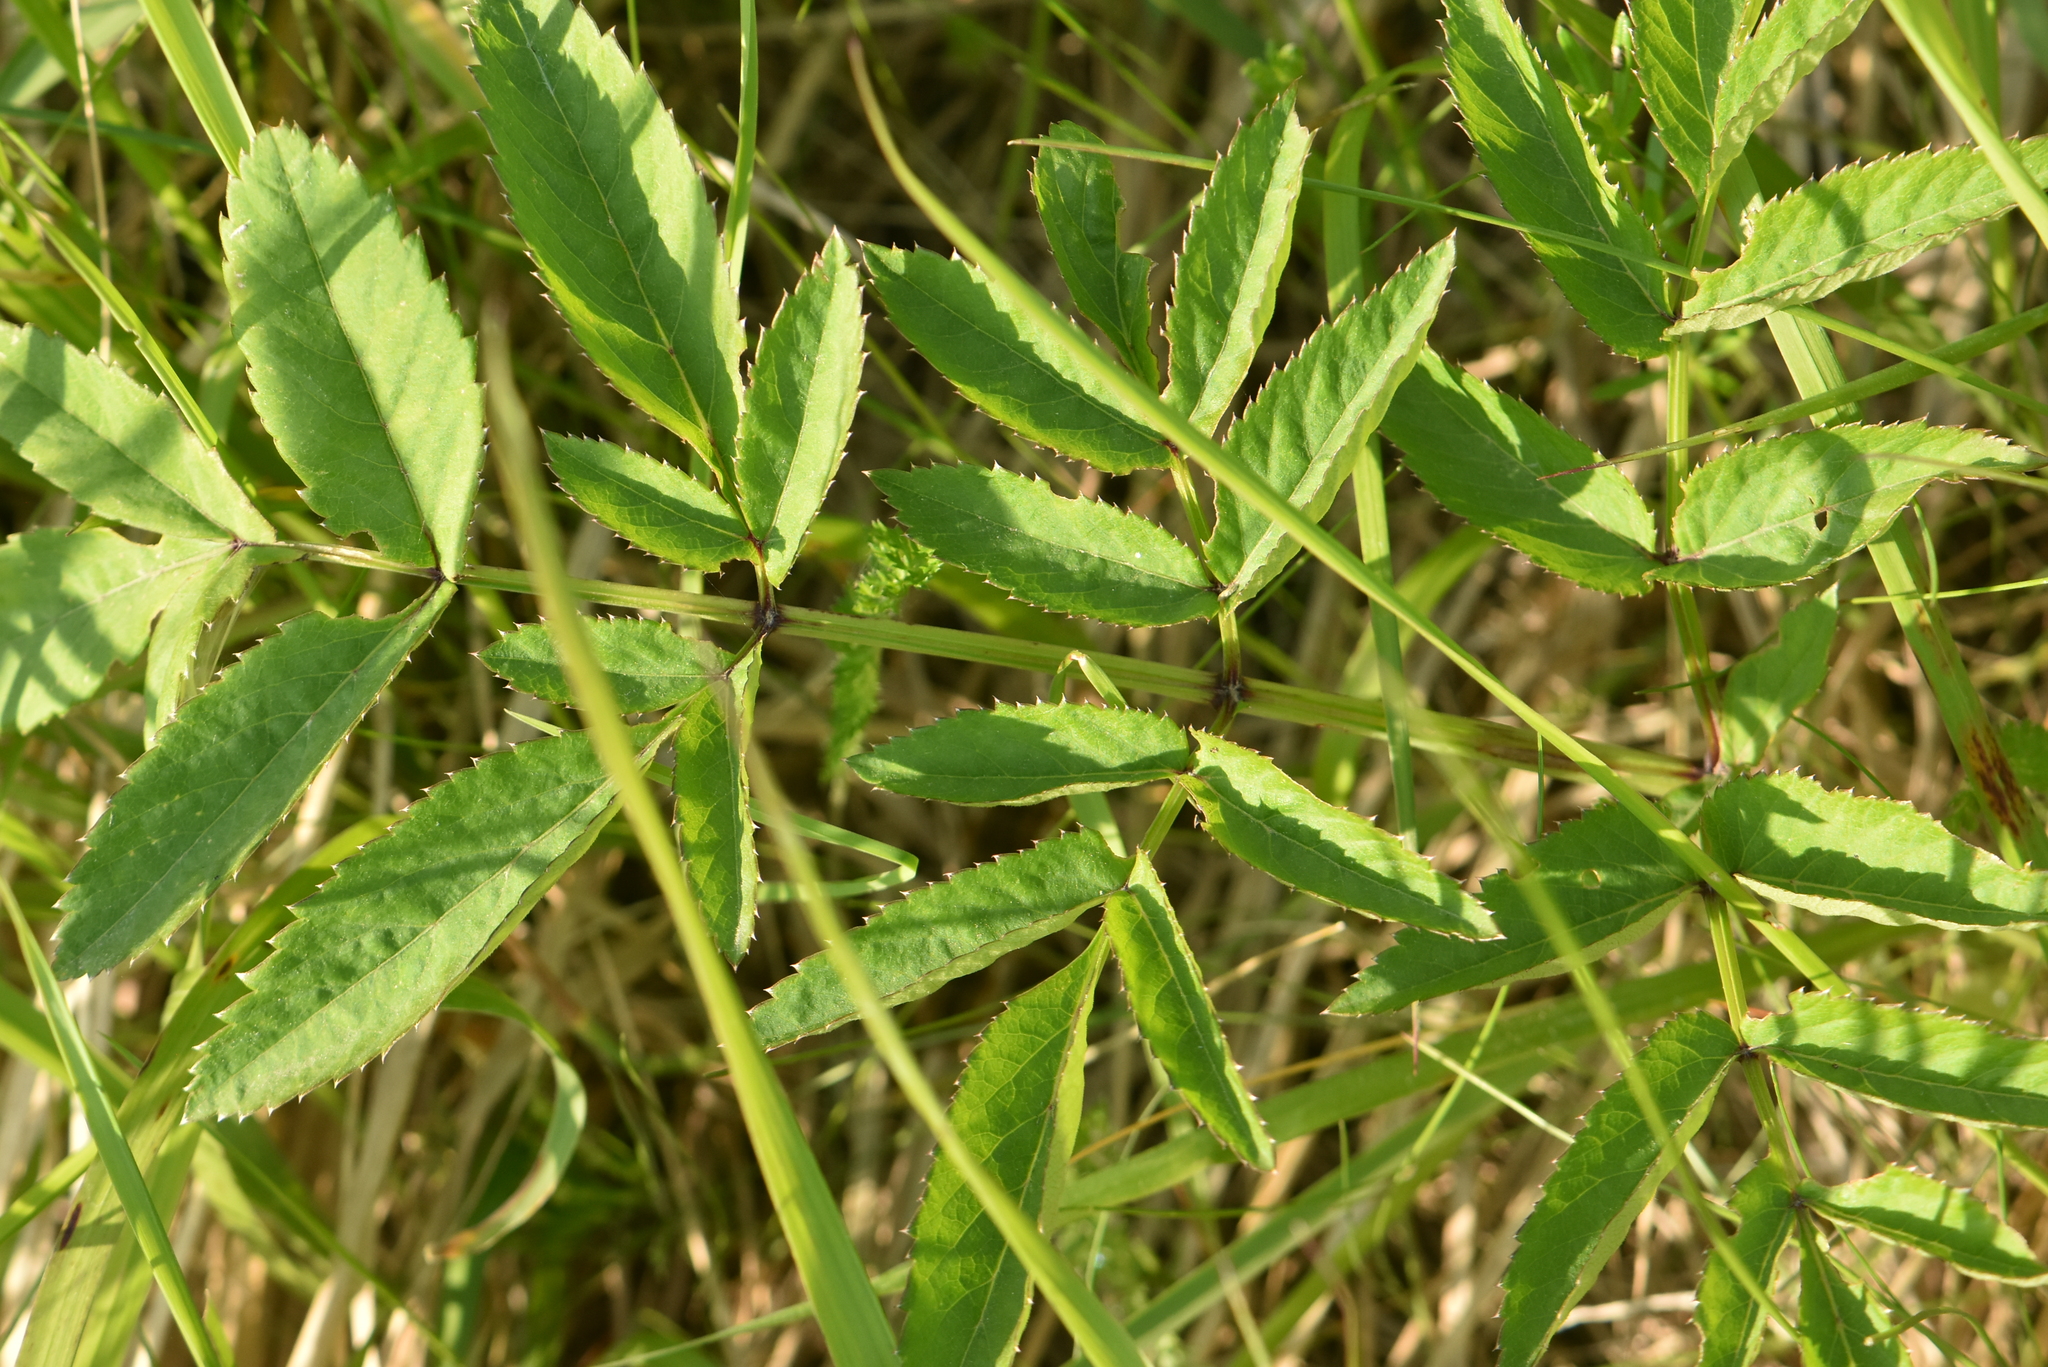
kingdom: Plantae
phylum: Tracheophyta
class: Magnoliopsida
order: Apiales
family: Apiaceae
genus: Angelica
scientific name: Angelica sylvestris
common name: Wild angelica
